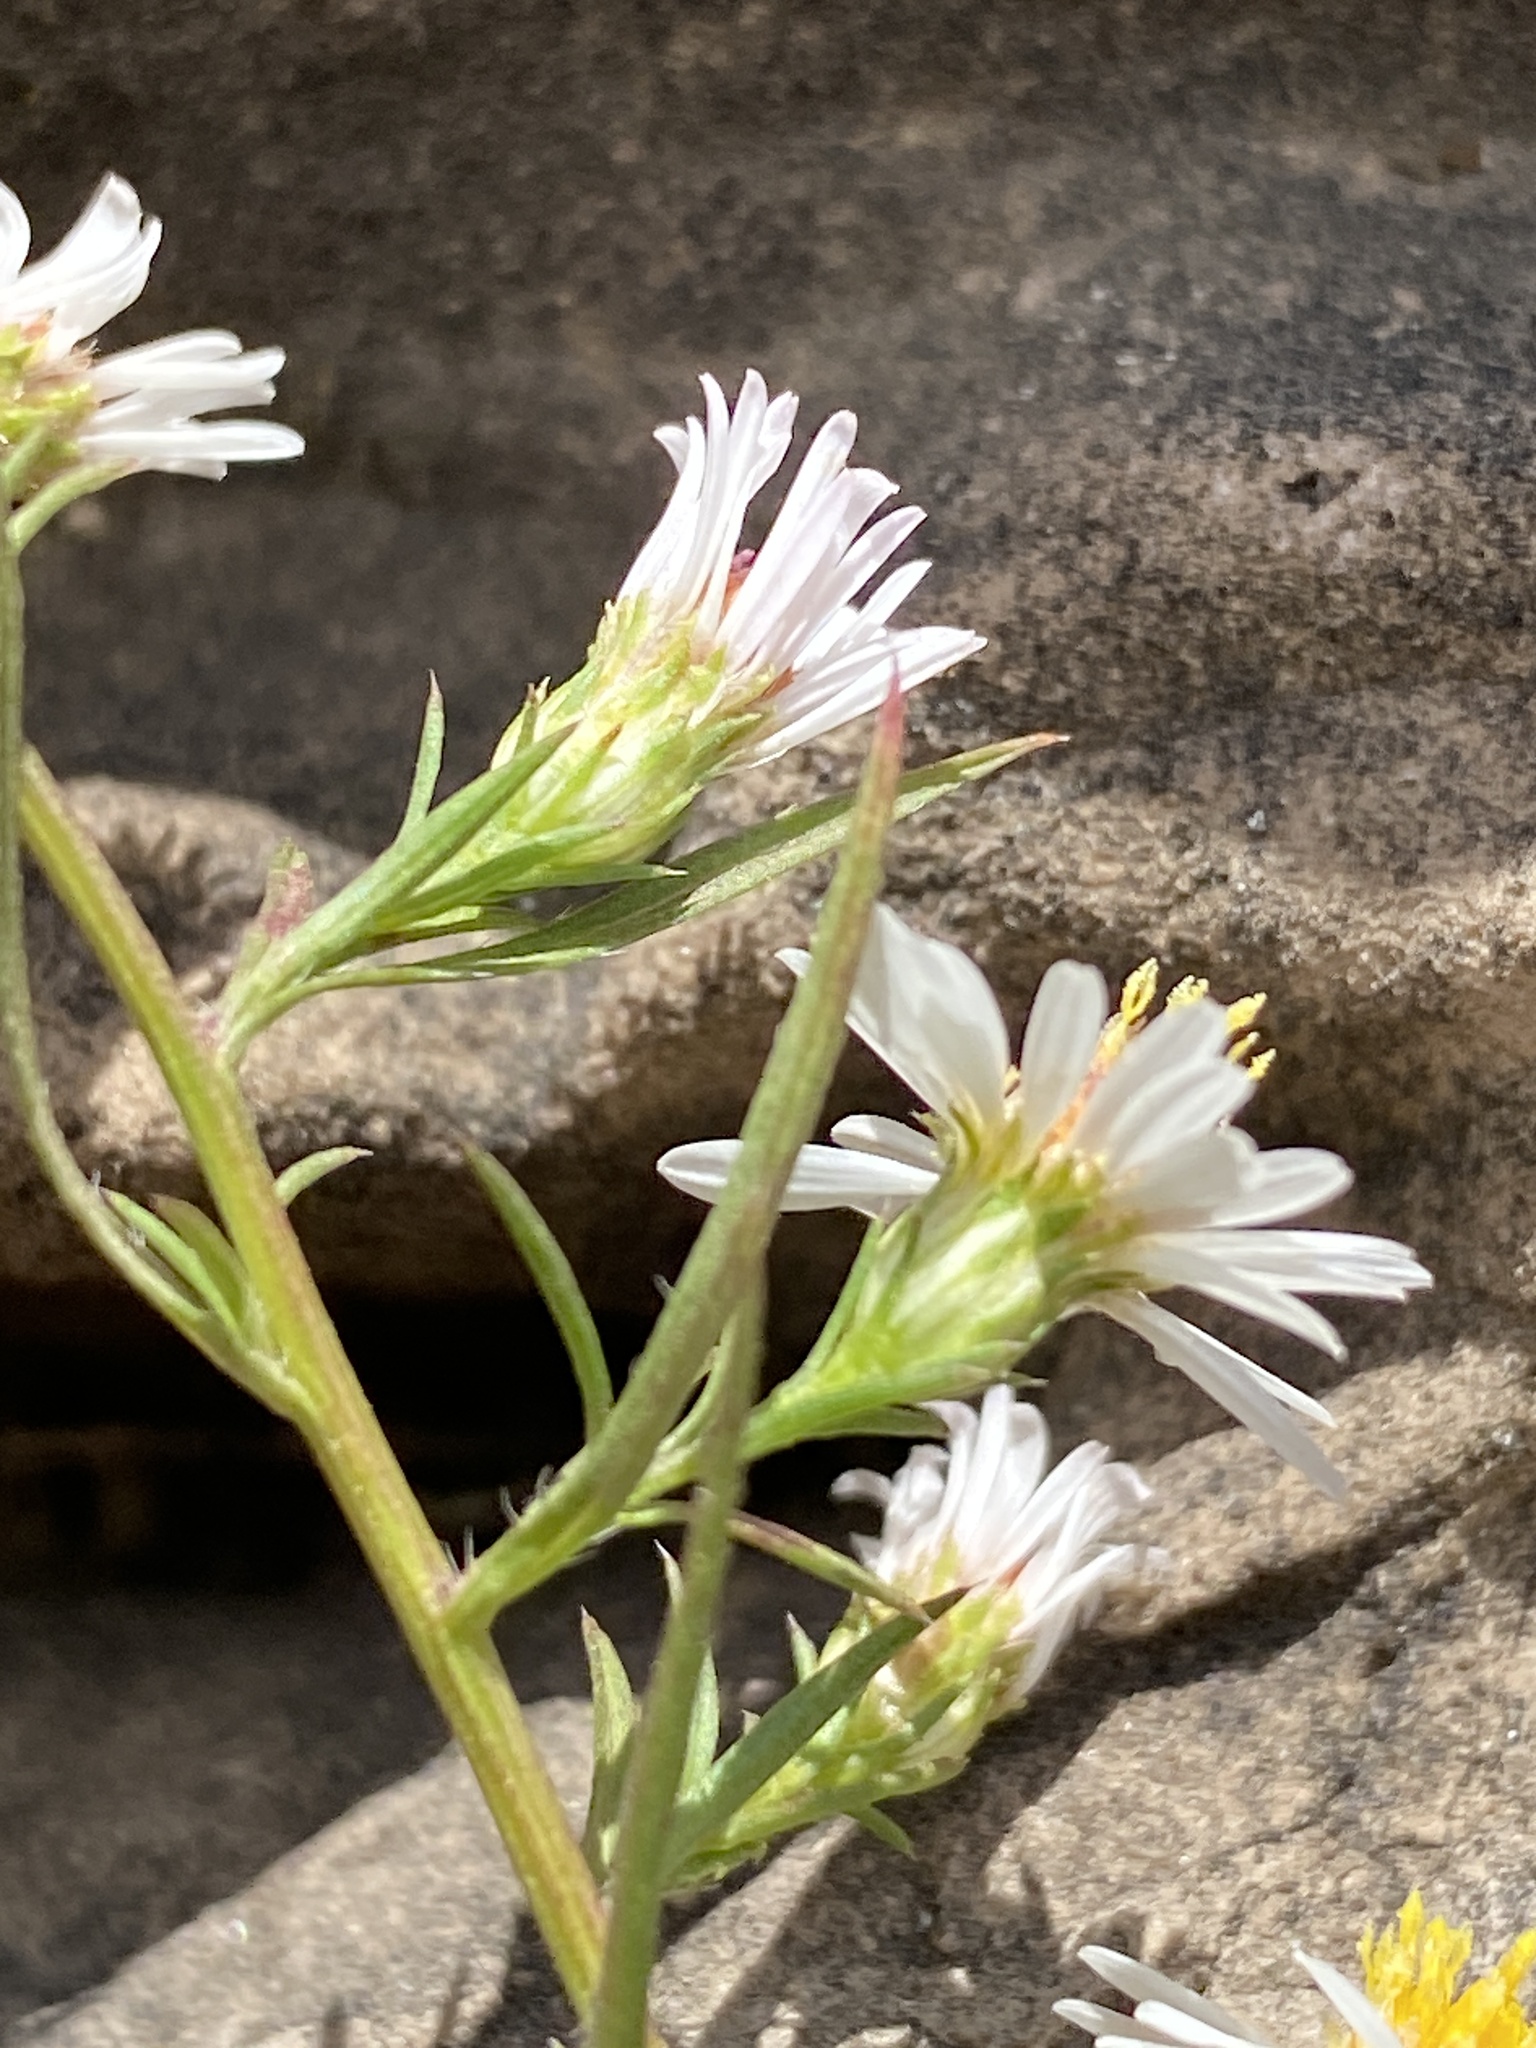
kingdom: Plantae
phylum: Tracheophyta
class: Magnoliopsida
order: Asterales
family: Asteraceae
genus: Symphyotrichum
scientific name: Symphyotrichum pilosum
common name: Awl aster
